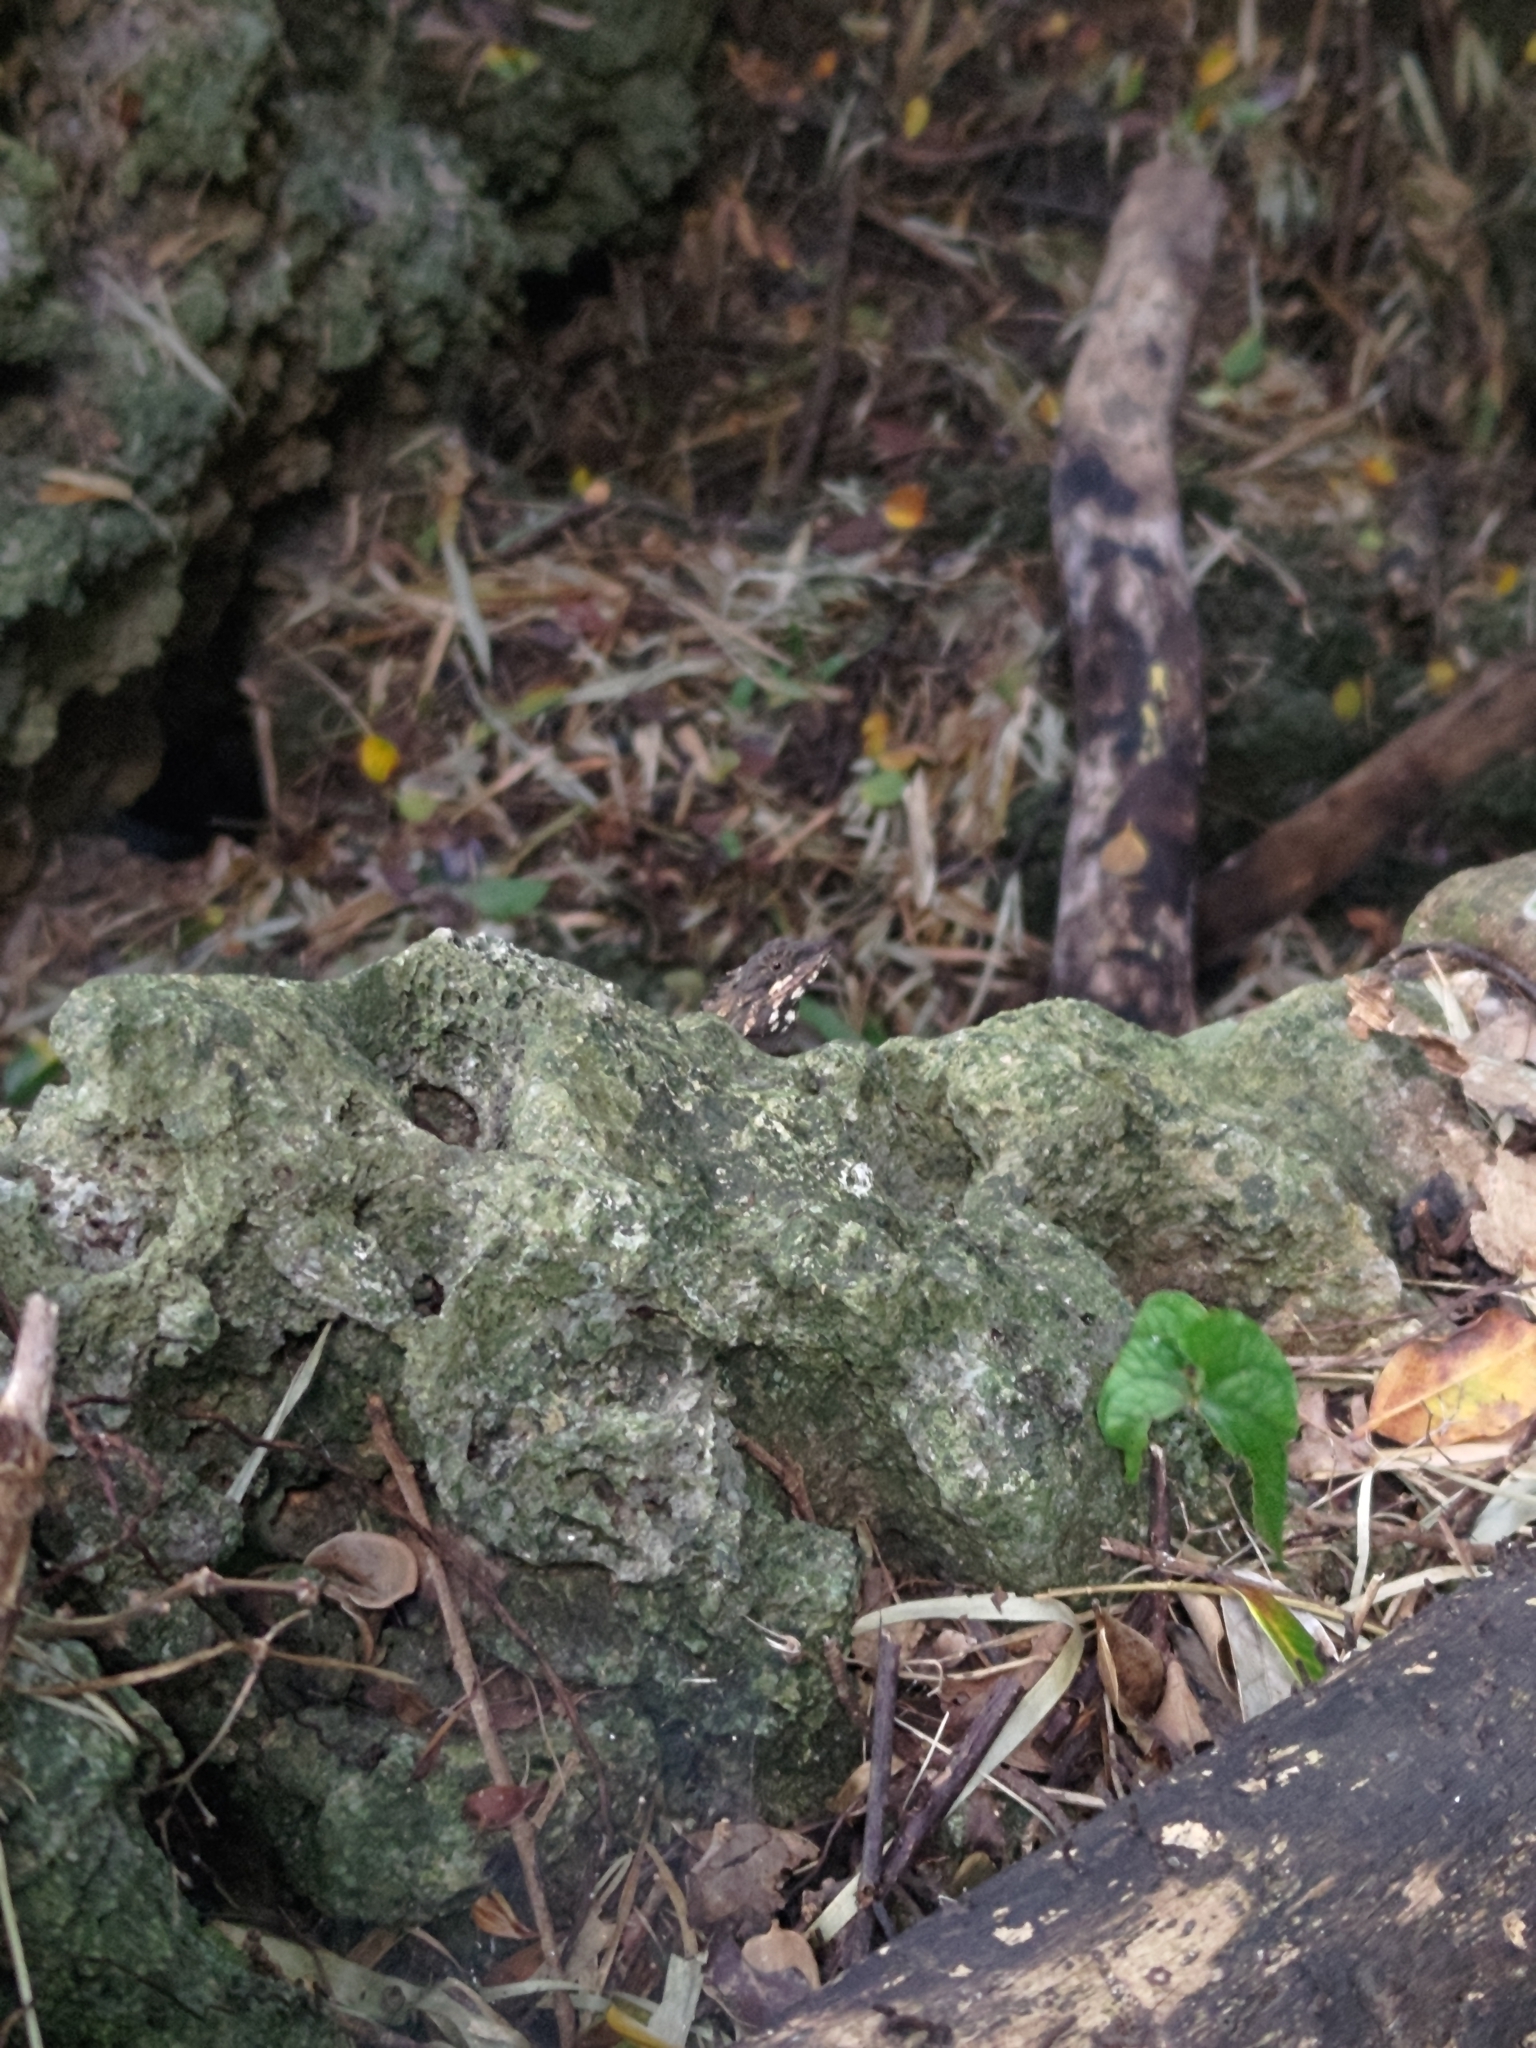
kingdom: Animalia
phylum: Chordata
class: Squamata
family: Agamidae
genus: Diploderma
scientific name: Diploderma swinhonis
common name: Taiwan japalure
